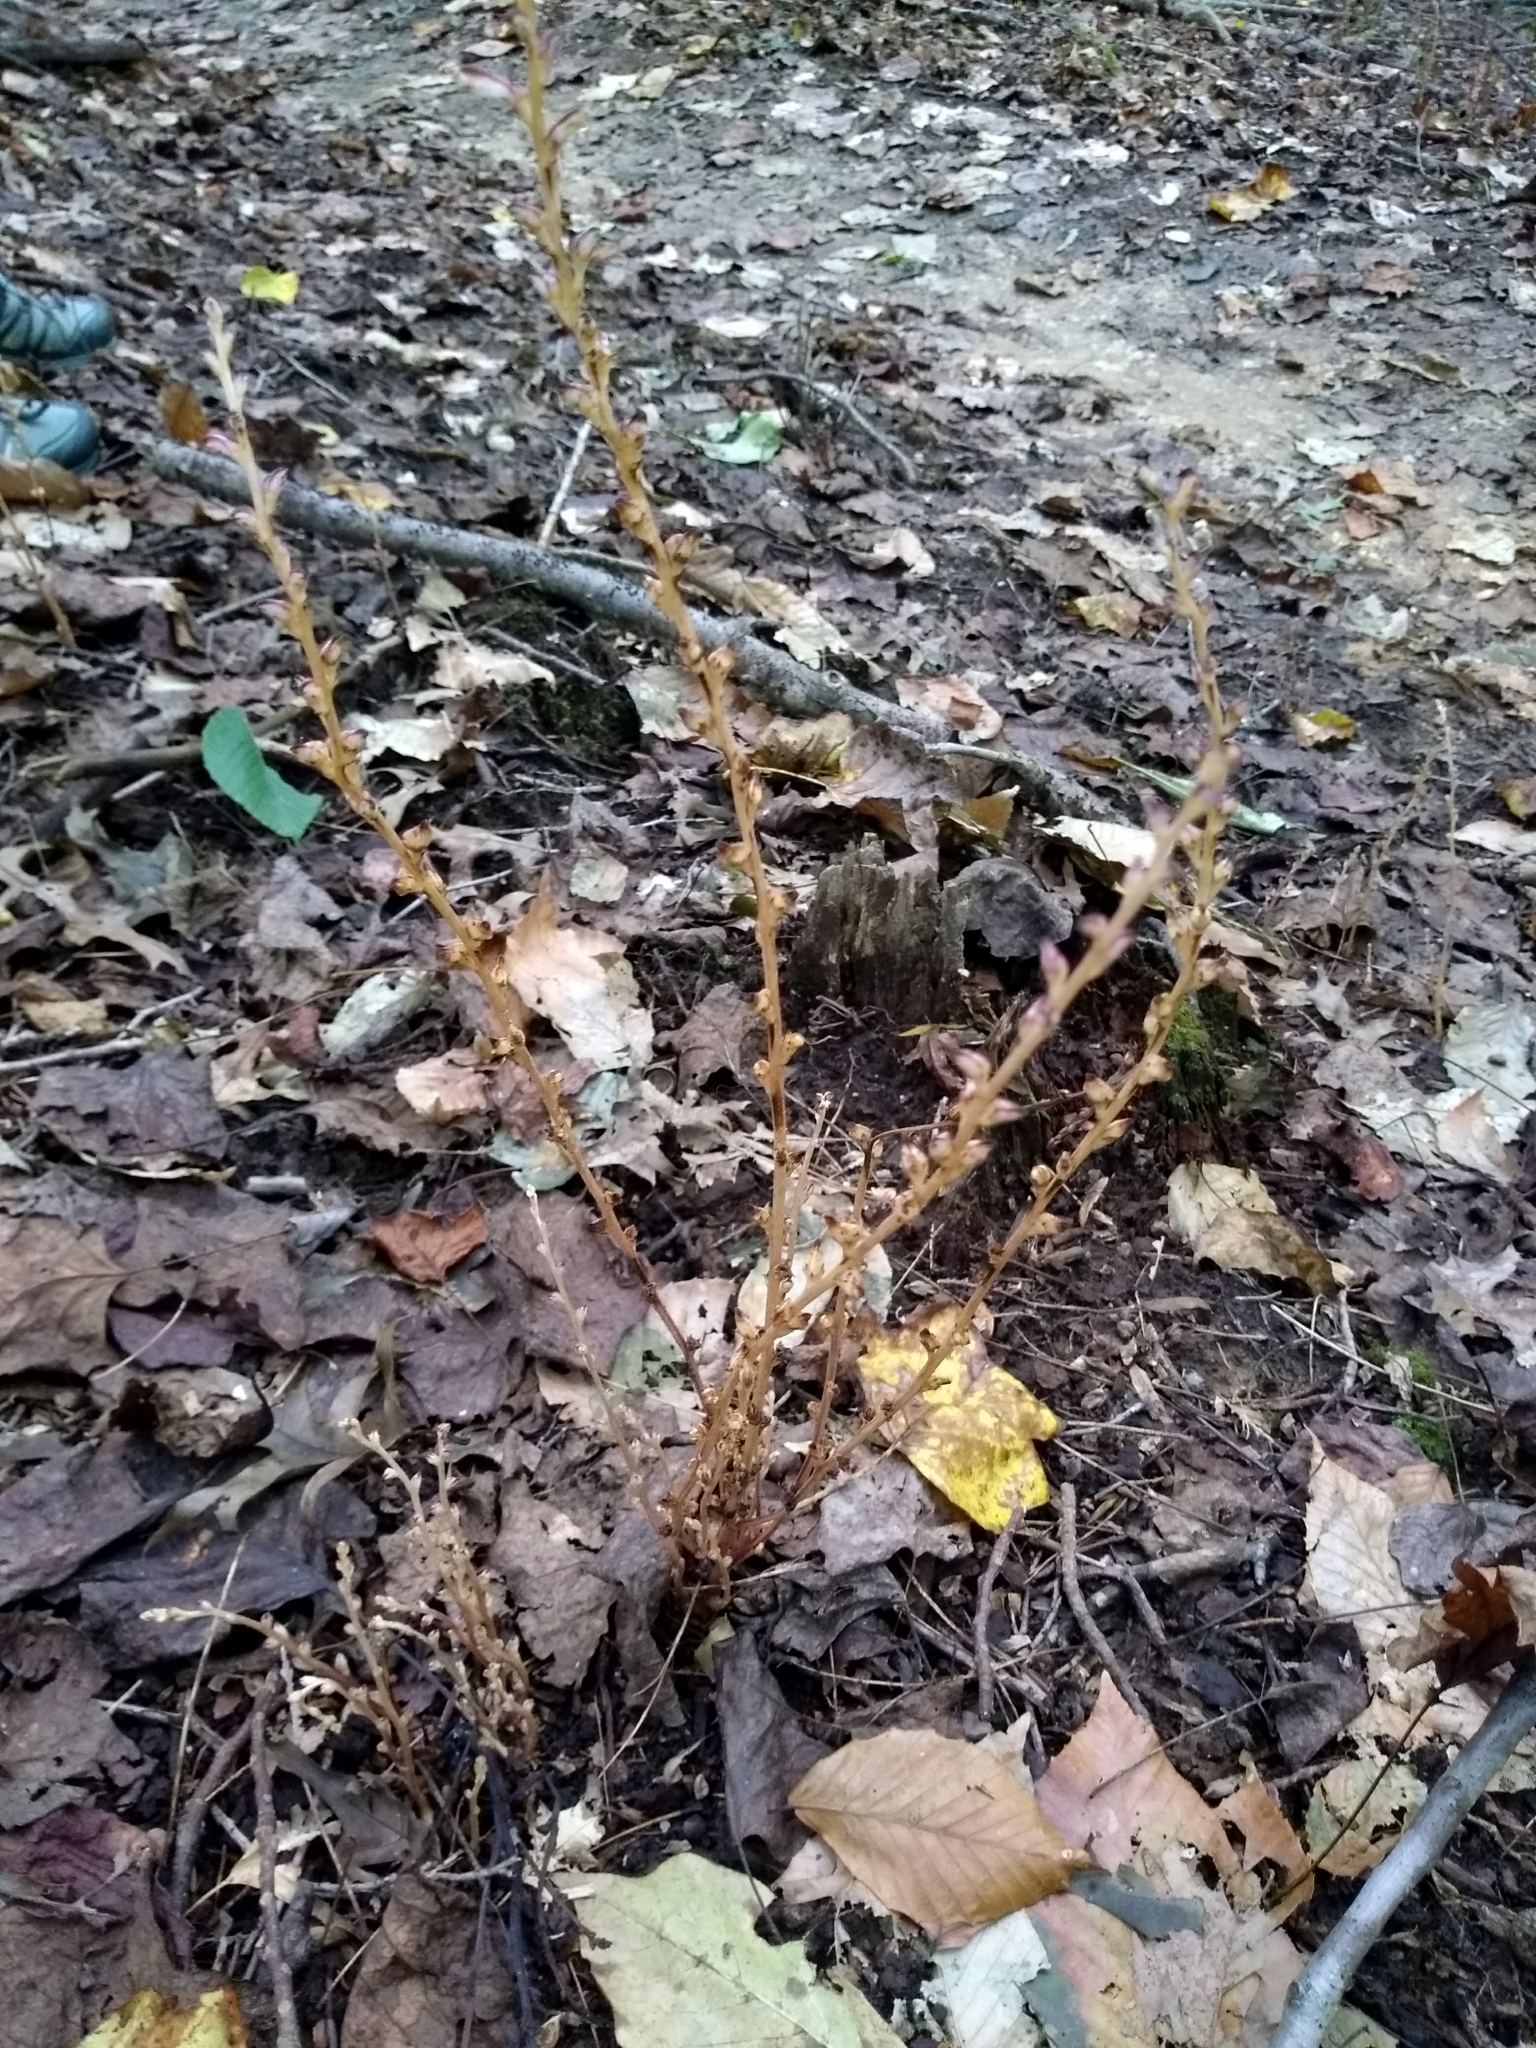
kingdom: Plantae
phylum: Tracheophyta
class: Magnoliopsida
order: Lamiales
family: Orobanchaceae
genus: Epifagus
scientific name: Epifagus virginiana
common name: Beechdrops
